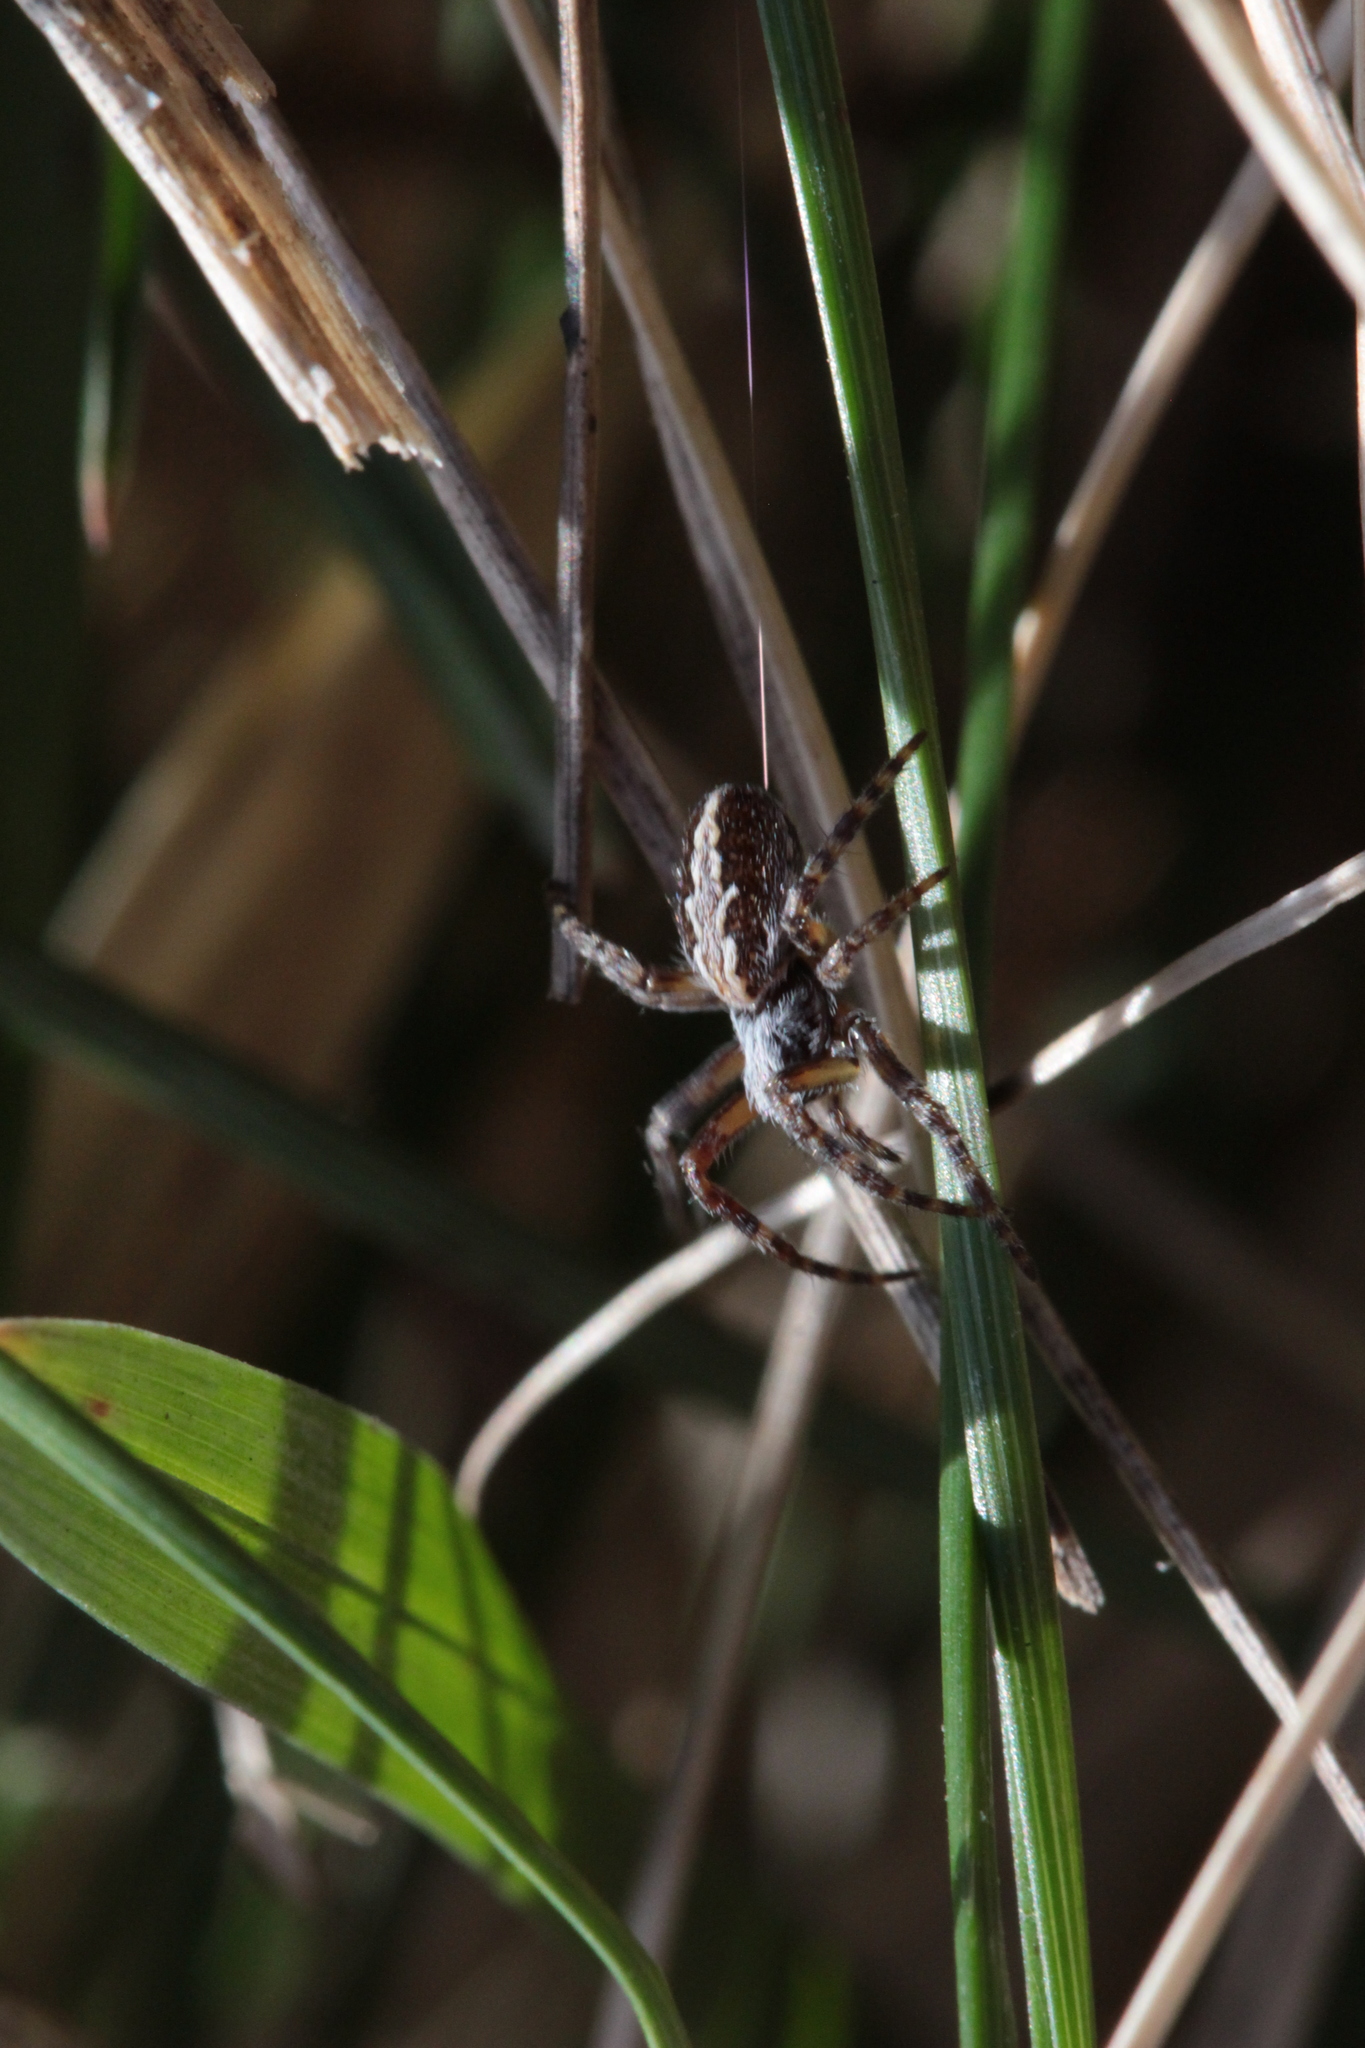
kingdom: Animalia
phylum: Arthropoda
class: Arachnida
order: Araneae
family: Araneidae
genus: Aculepeira
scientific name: Aculepeira ceropegia
